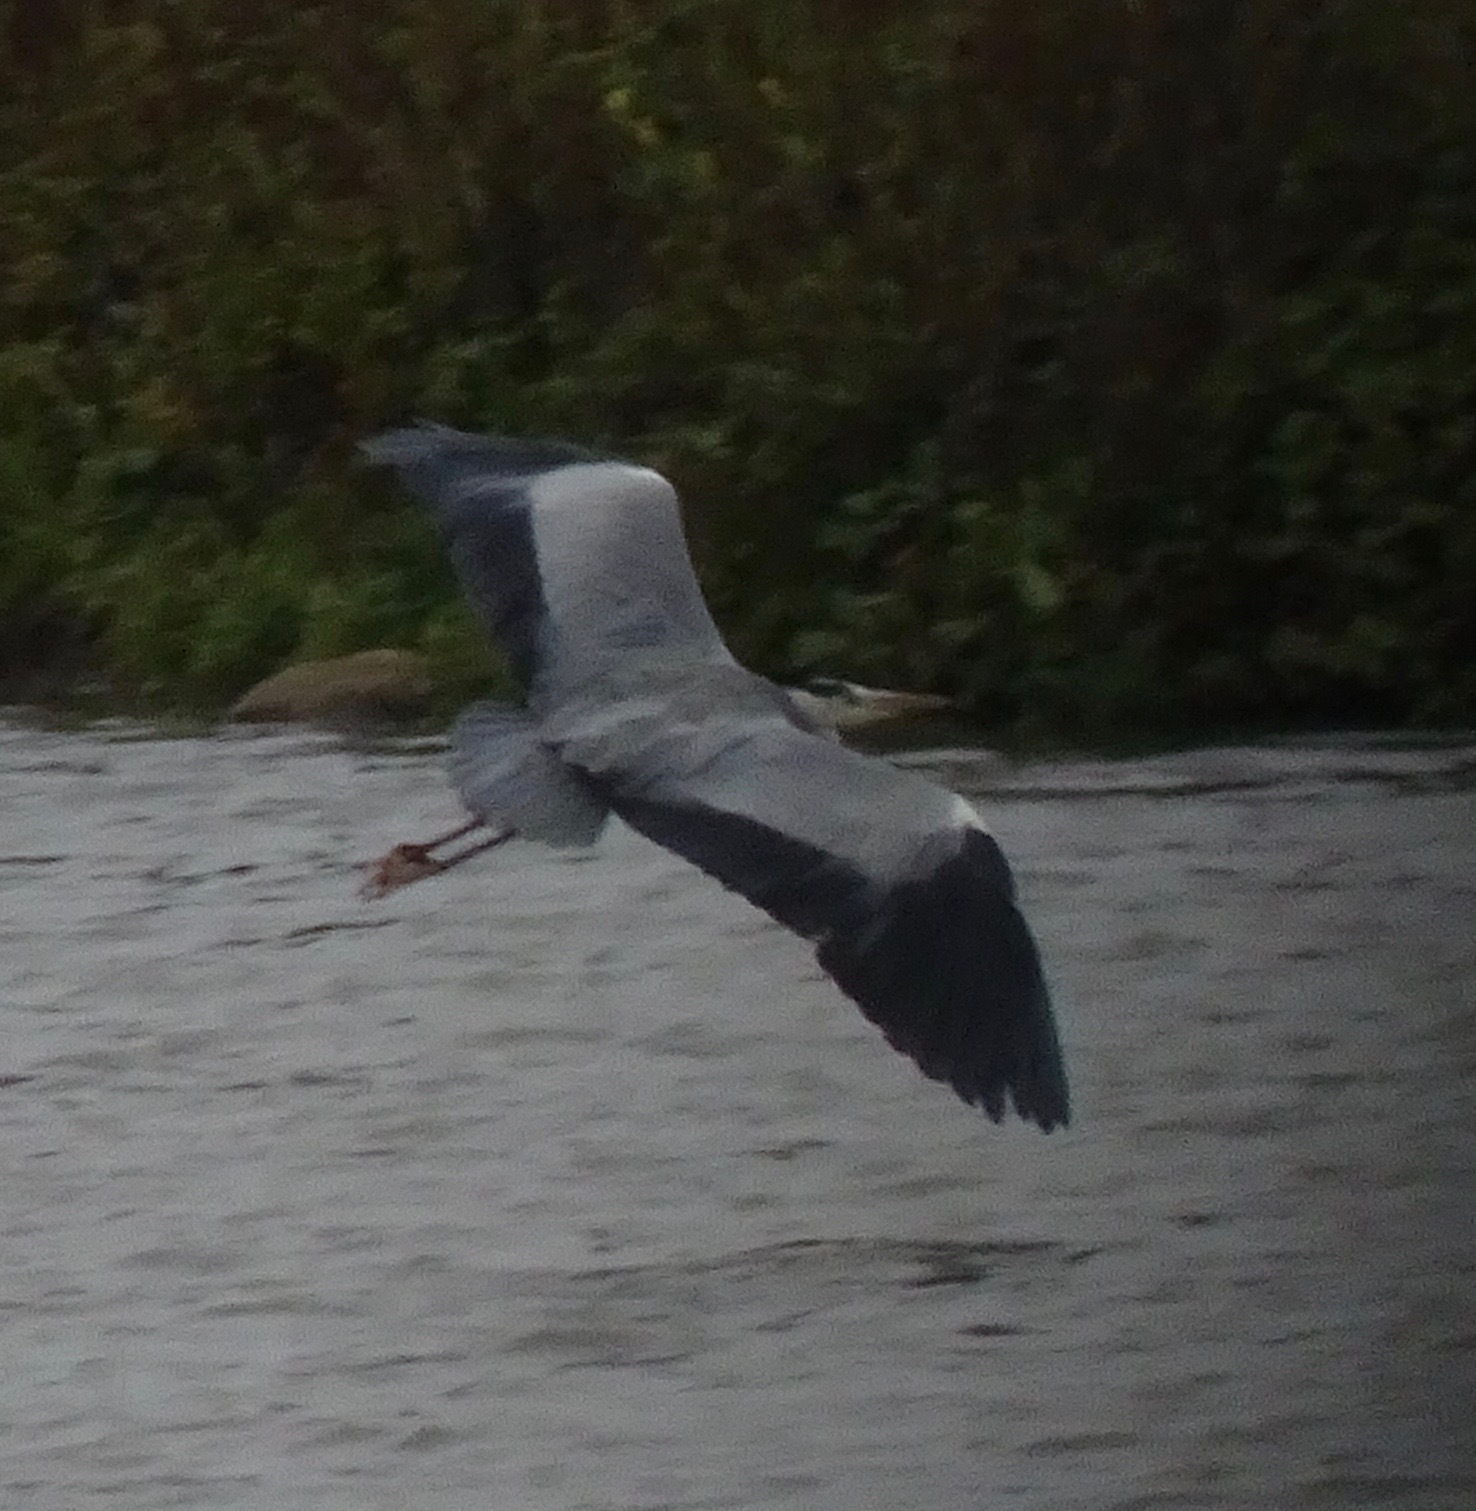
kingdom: Animalia
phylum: Chordata
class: Aves
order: Pelecaniformes
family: Ardeidae
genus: Ardea
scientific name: Ardea cinerea
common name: Grey heron
